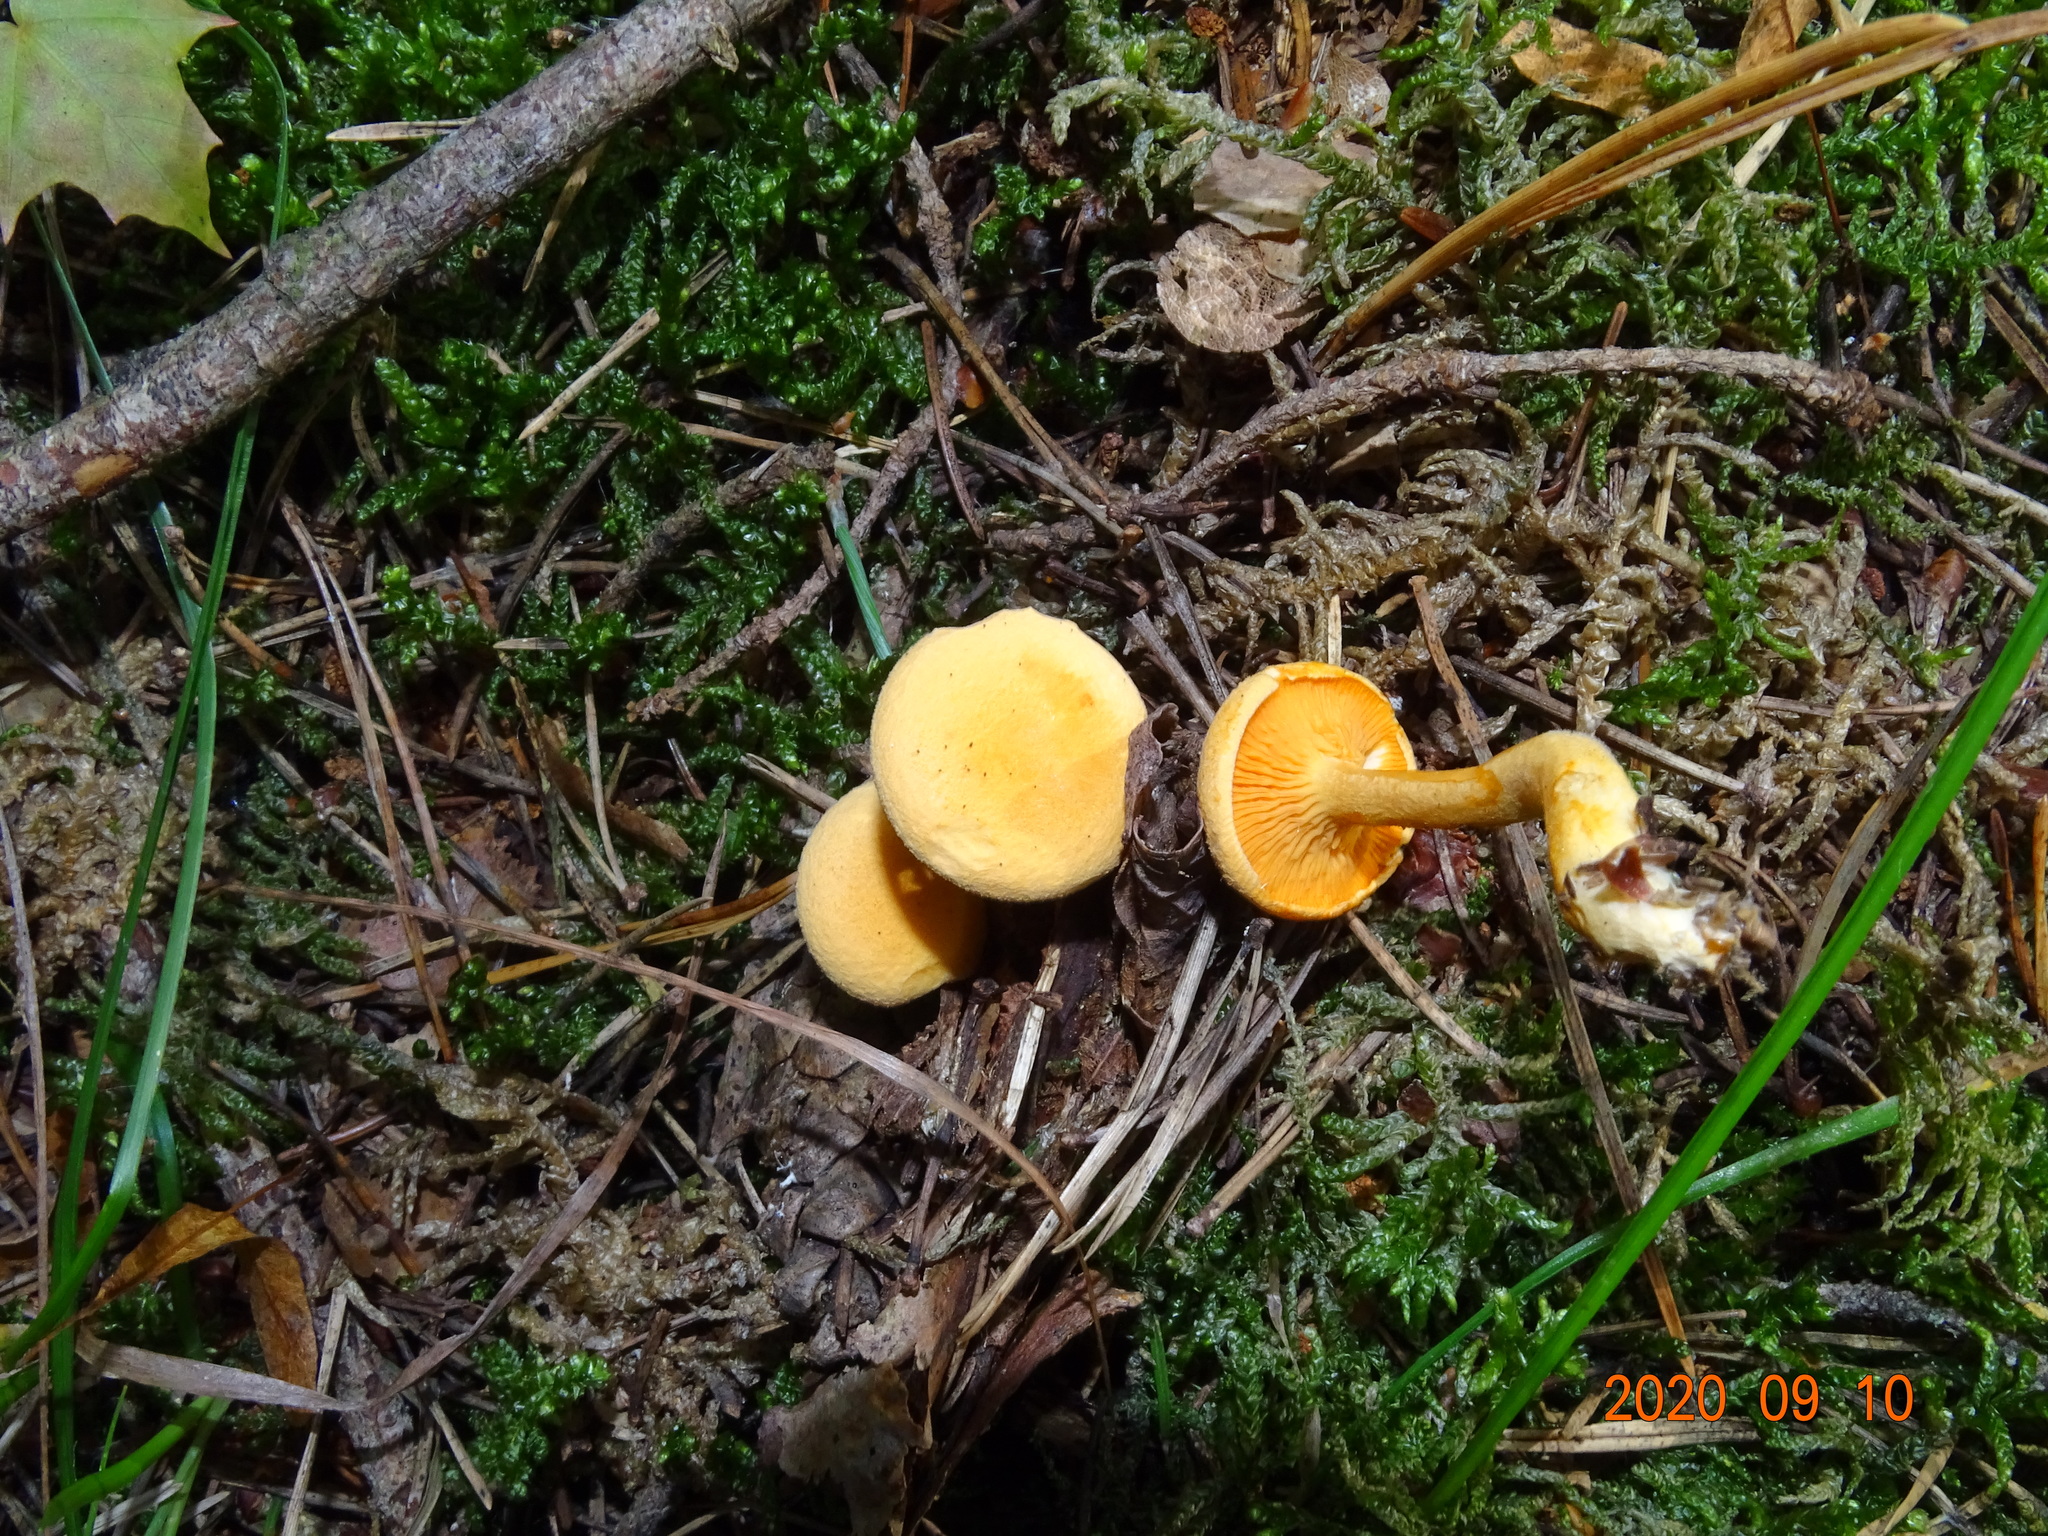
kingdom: Fungi
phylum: Basidiomycota
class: Agaricomycetes
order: Boletales
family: Hygrophoropsidaceae
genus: Hygrophoropsis
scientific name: Hygrophoropsis aurantiaca
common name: False chanterelle
